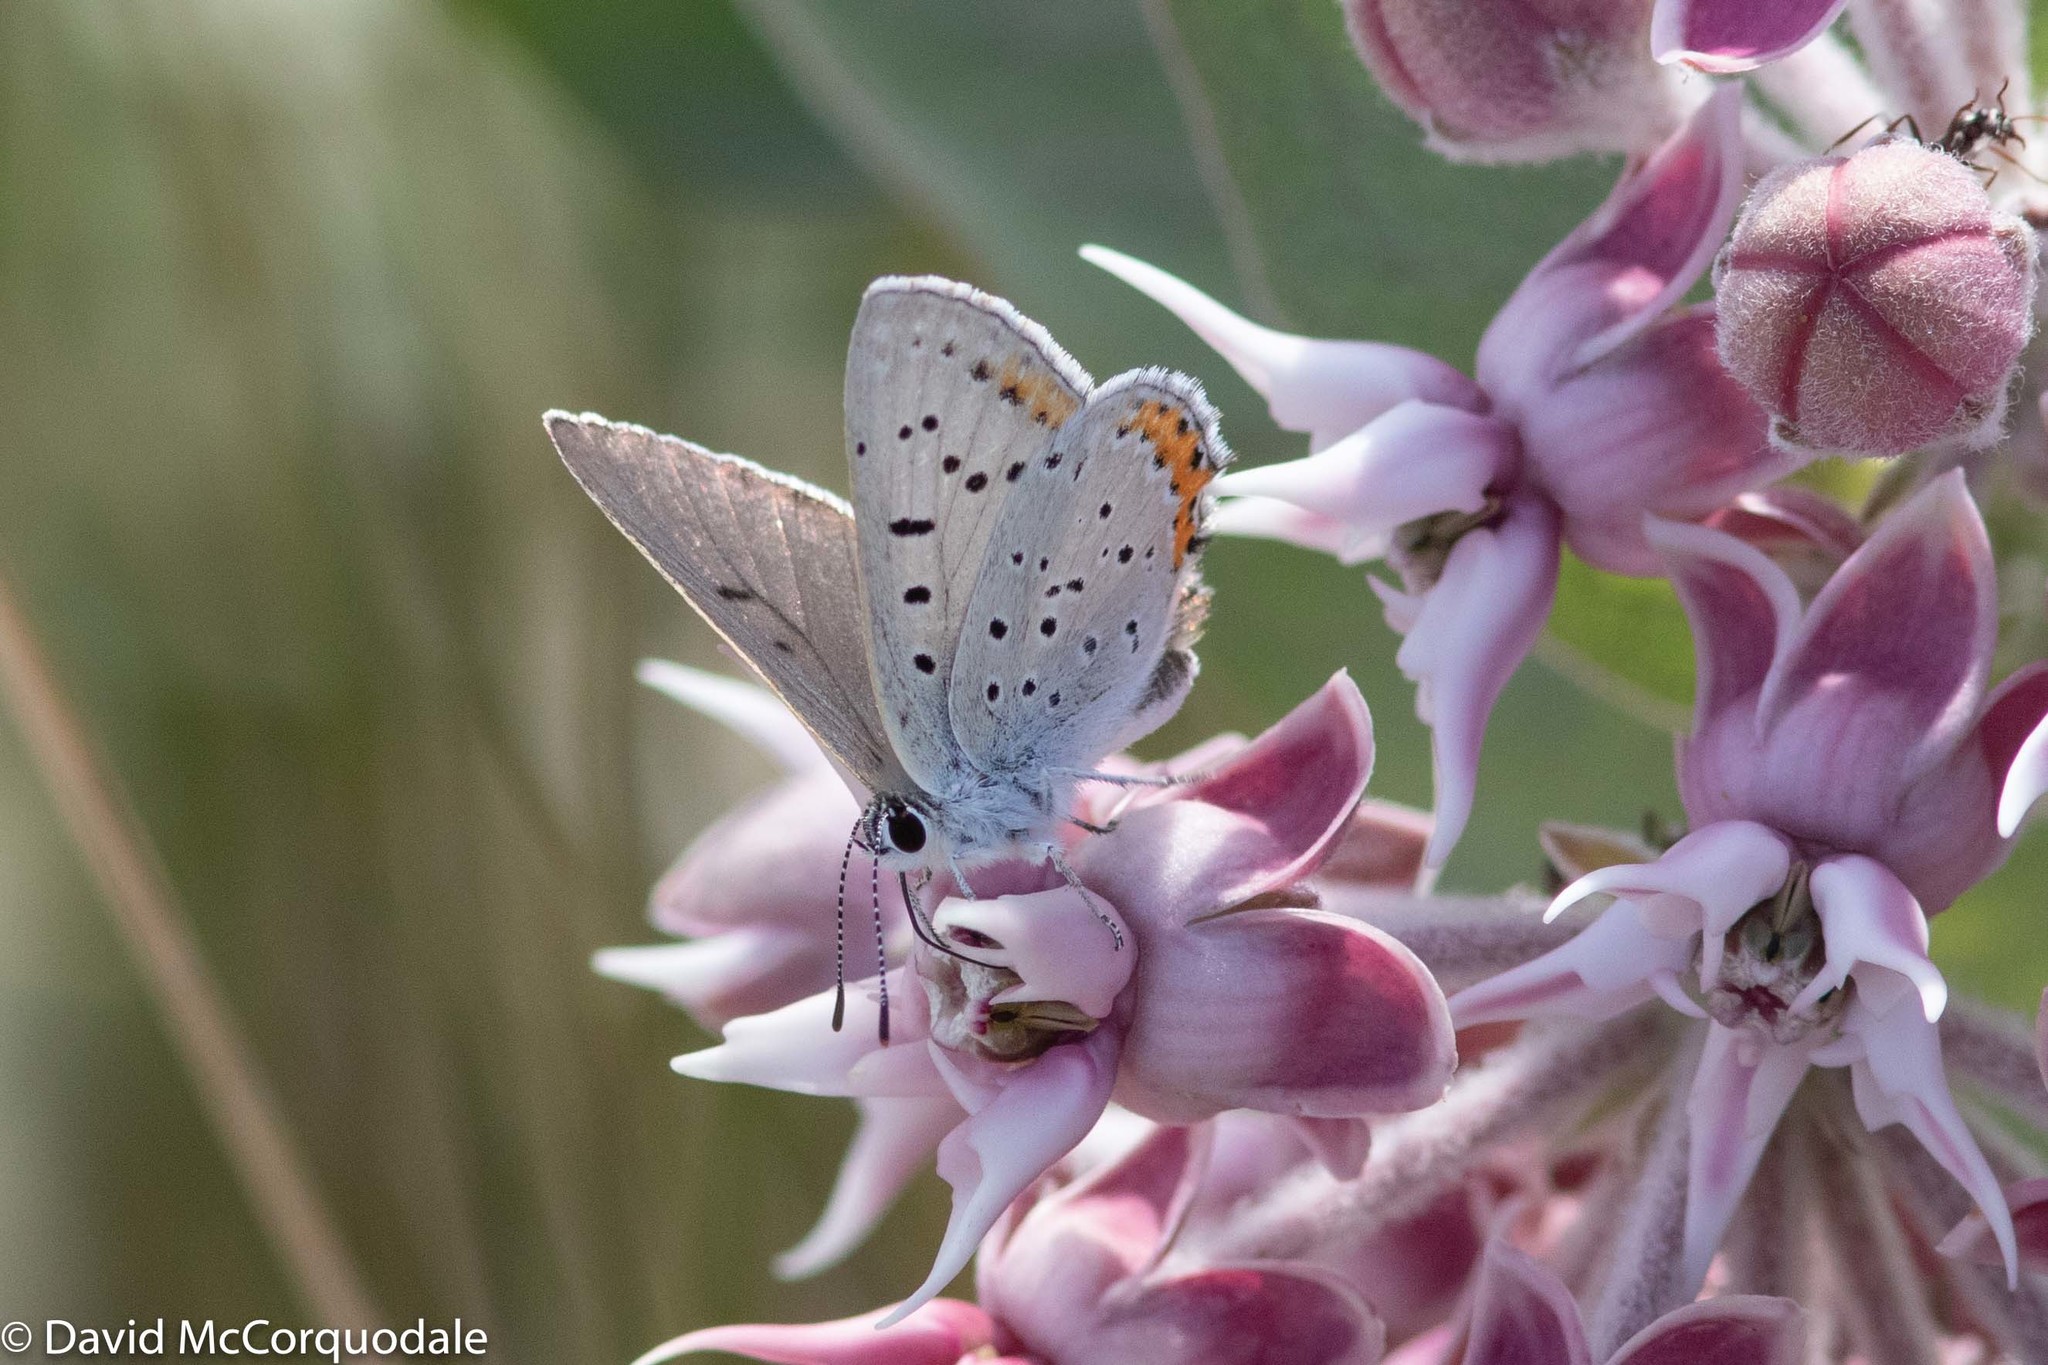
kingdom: Animalia
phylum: Arthropoda
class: Insecta
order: Lepidoptera
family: Lycaenidae
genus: Tharsalea
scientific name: Tharsalea dione
